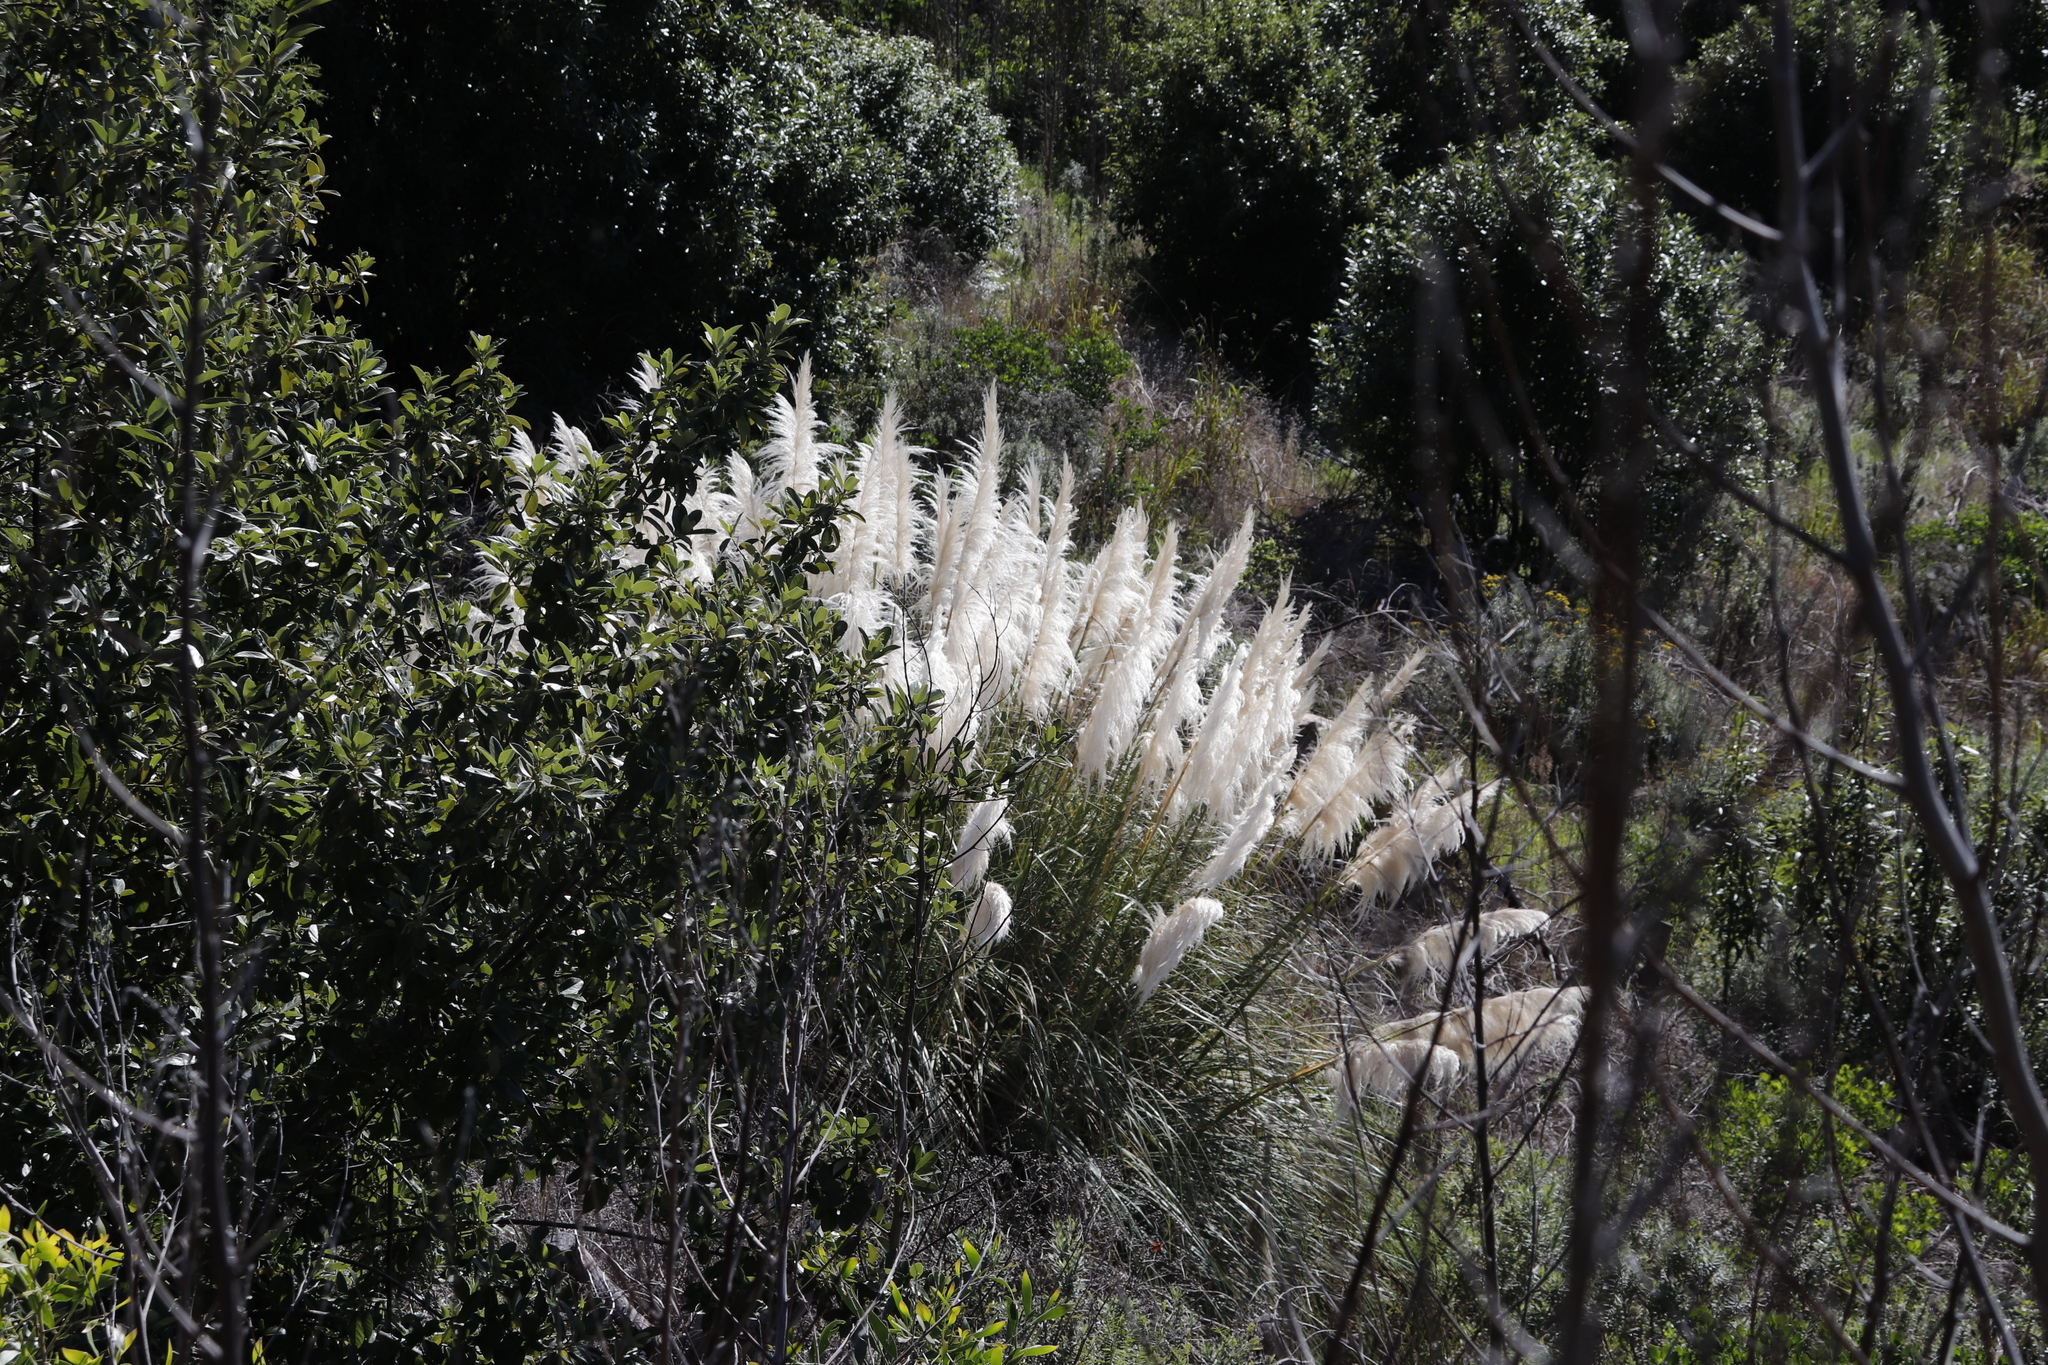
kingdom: Plantae
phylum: Tracheophyta
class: Liliopsida
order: Poales
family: Poaceae
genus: Cortaderia
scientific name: Cortaderia selloana
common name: Uruguayan pampas grass
